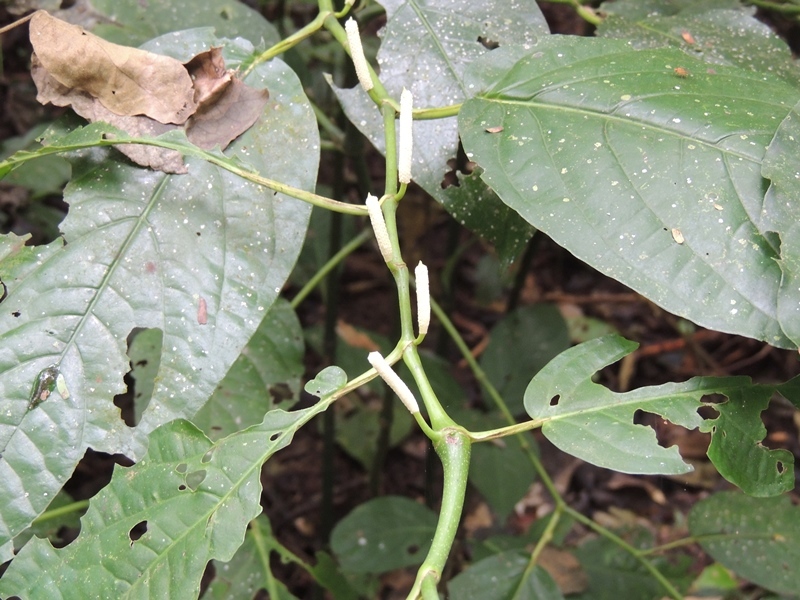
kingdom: Plantae
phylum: Tracheophyta
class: Magnoliopsida
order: Piperales
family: Piperaceae
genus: Piper
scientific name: Piper glabrescens
